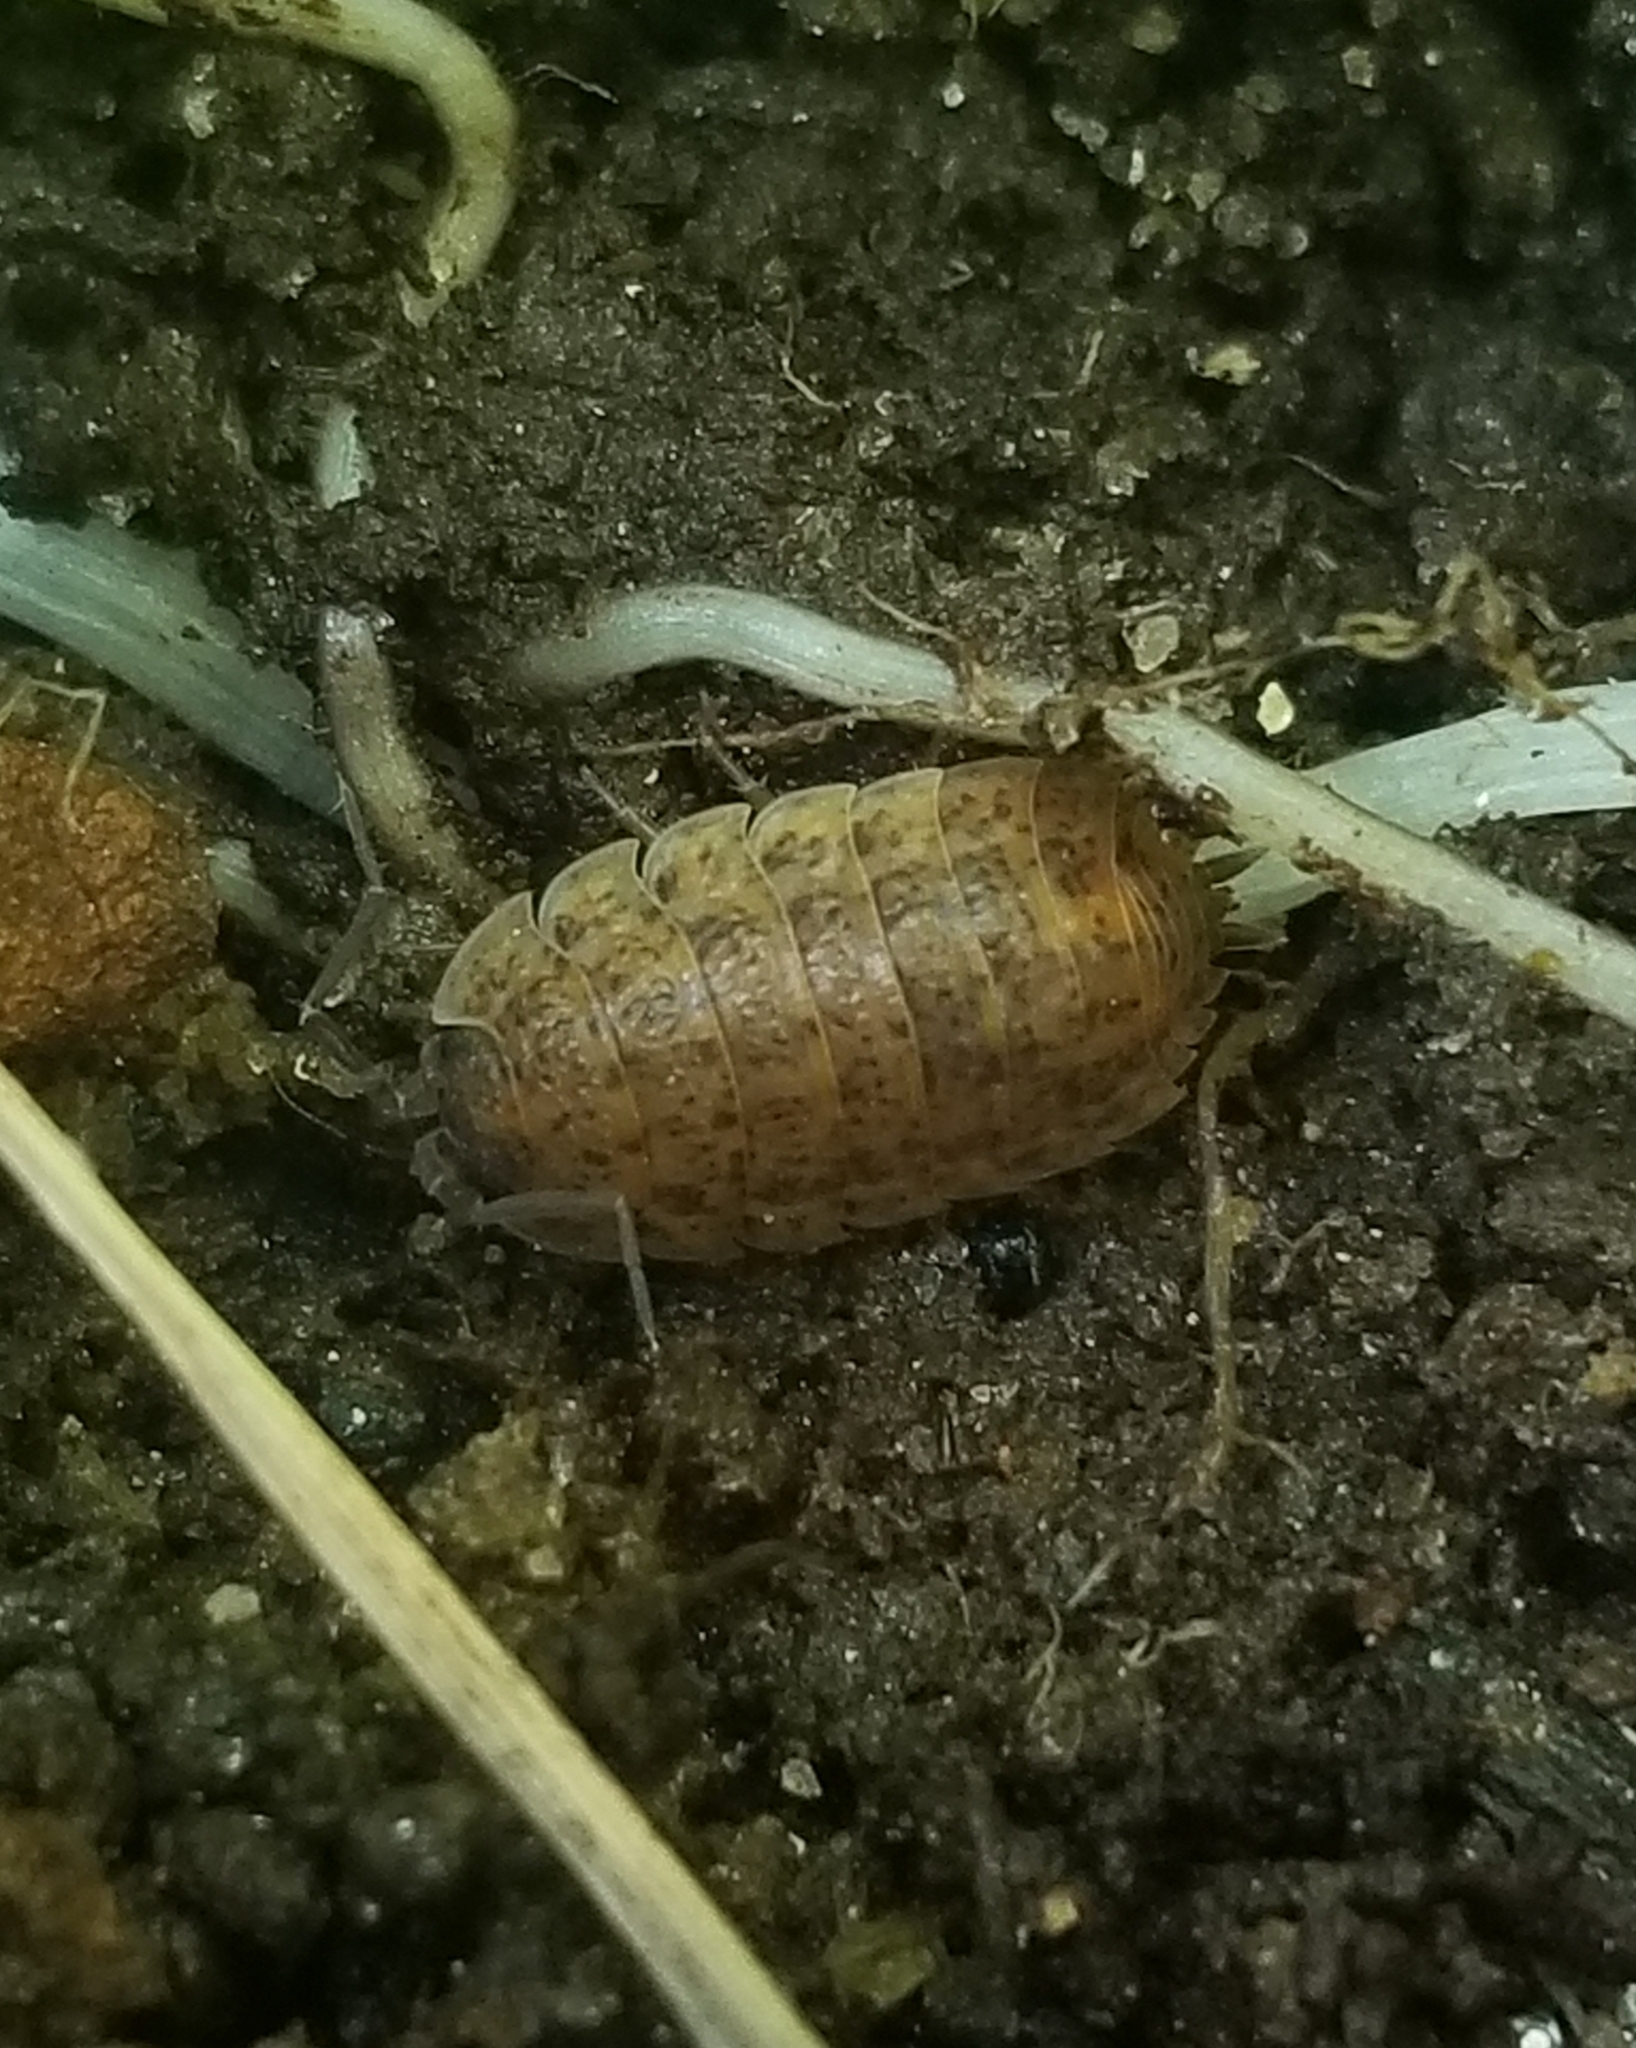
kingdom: Animalia
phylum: Arthropoda
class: Malacostraca
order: Isopoda
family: Trachelipodidae
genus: Trachelipus
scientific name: Trachelipus rathkii
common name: Isopod
